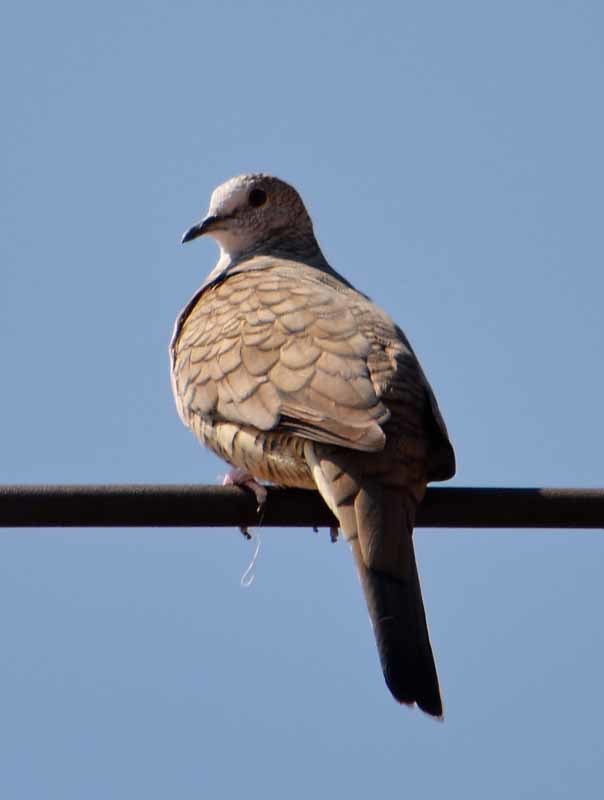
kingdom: Animalia
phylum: Chordata
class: Aves
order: Columbiformes
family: Columbidae
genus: Columbina
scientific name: Columbina inca
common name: Inca dove
